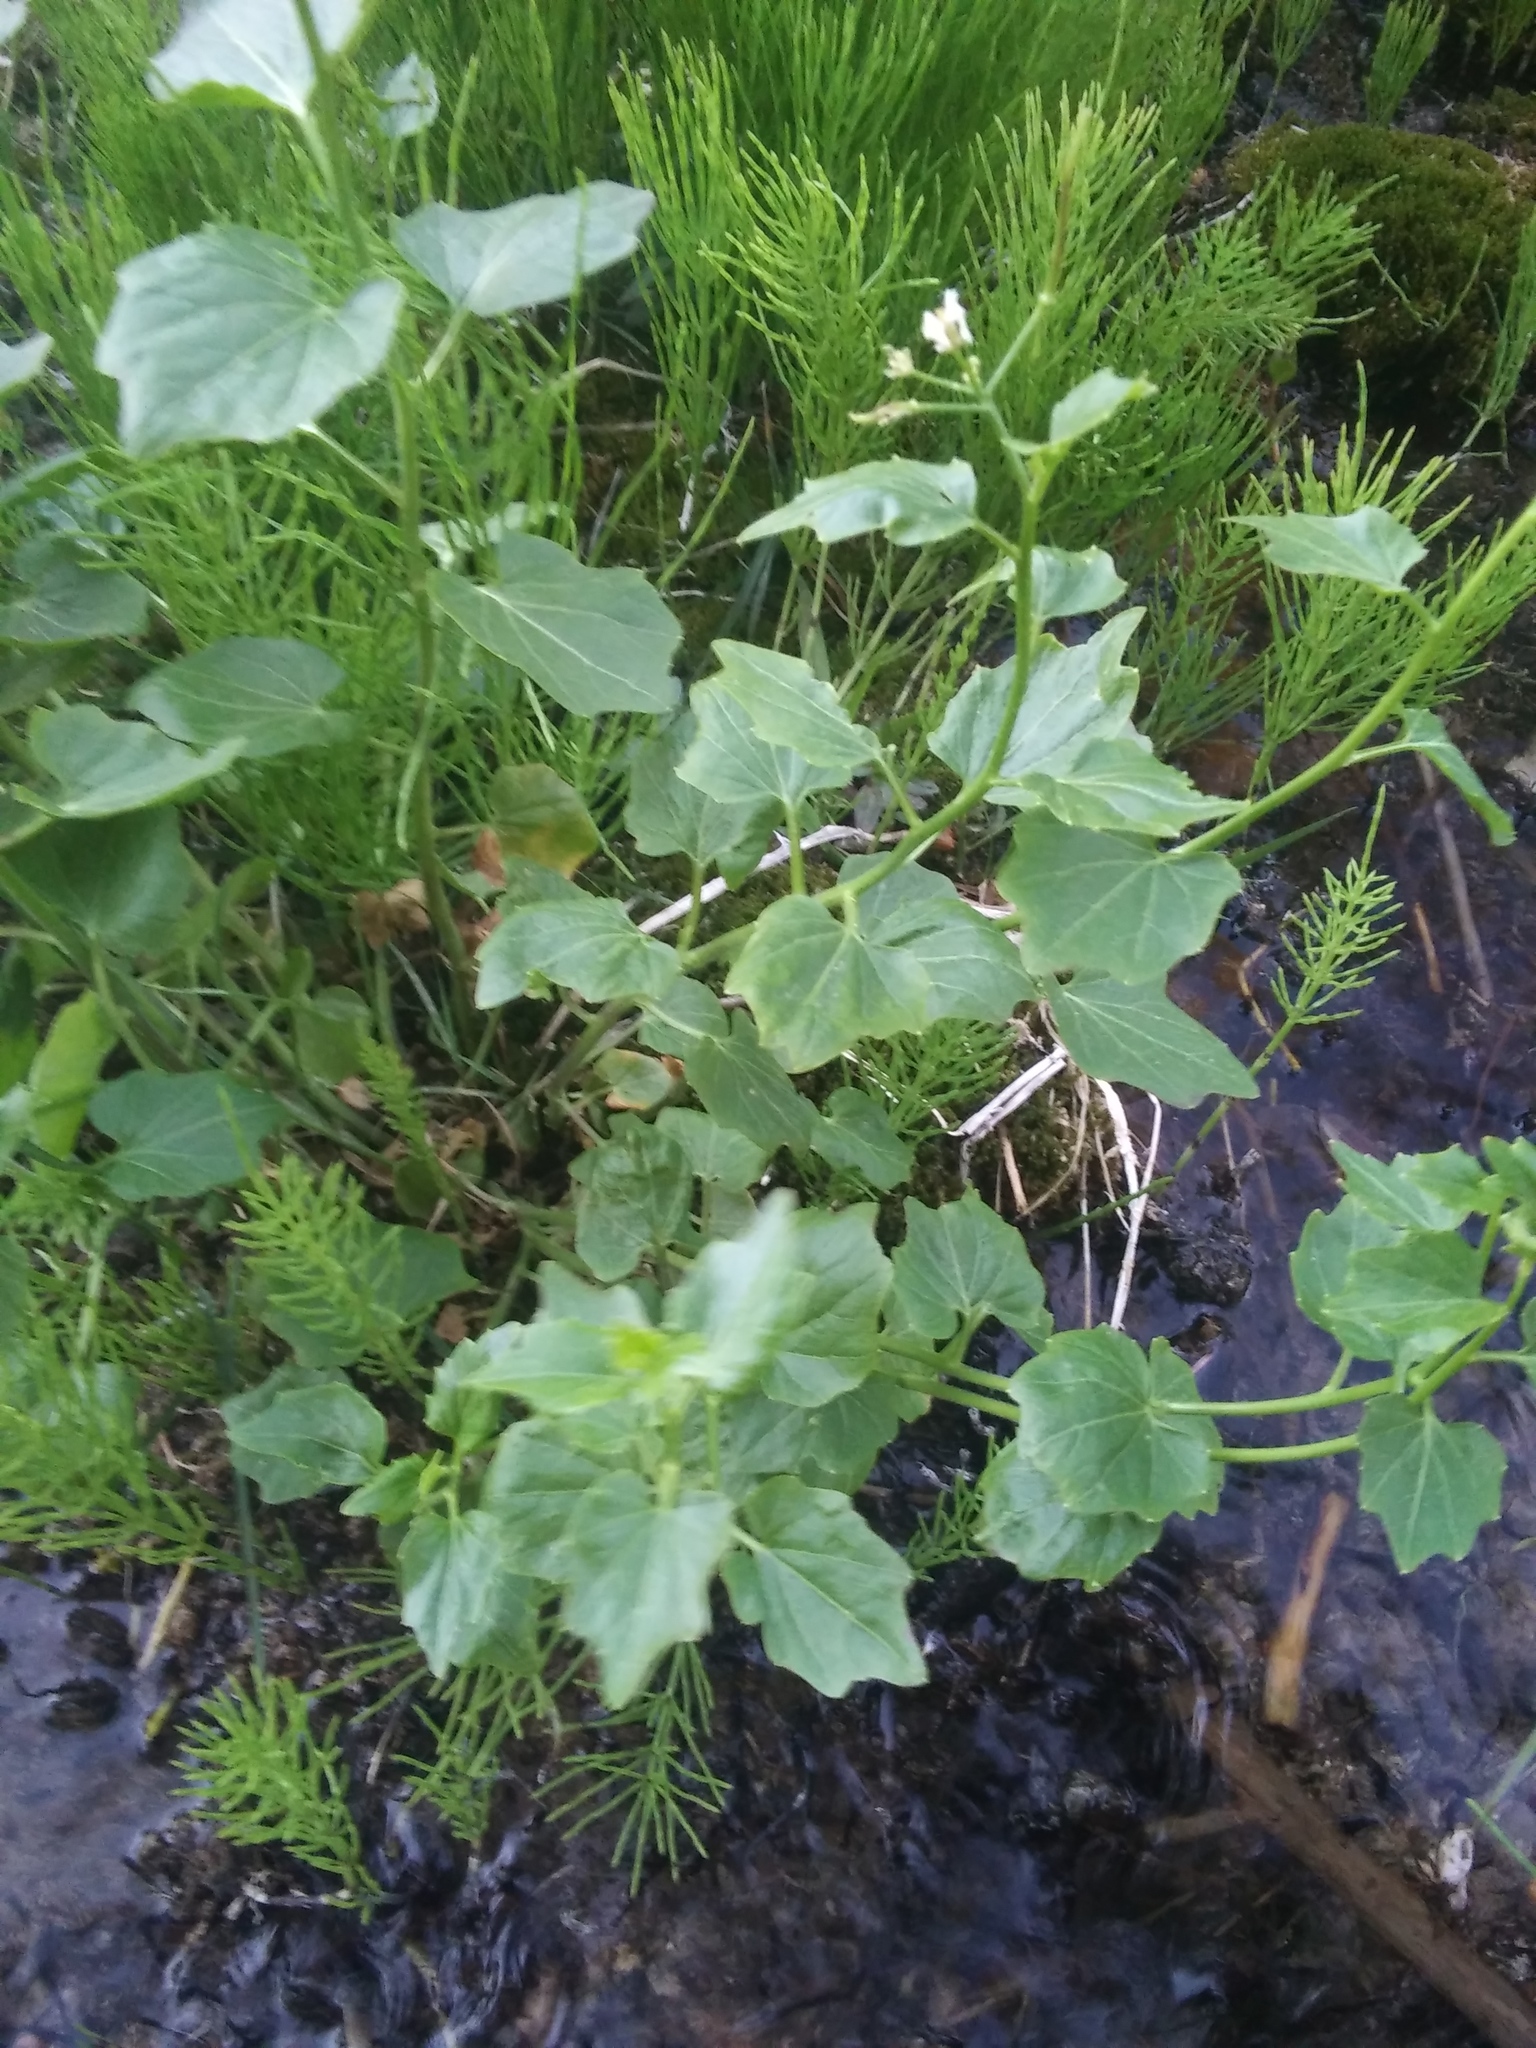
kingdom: Plantae
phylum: Tracheophyta
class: Magnoliopsida
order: Brassicales
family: Brassicaceae
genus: Cardamine
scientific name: Cardamine cordifolia
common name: Heart-leaf bittercress
